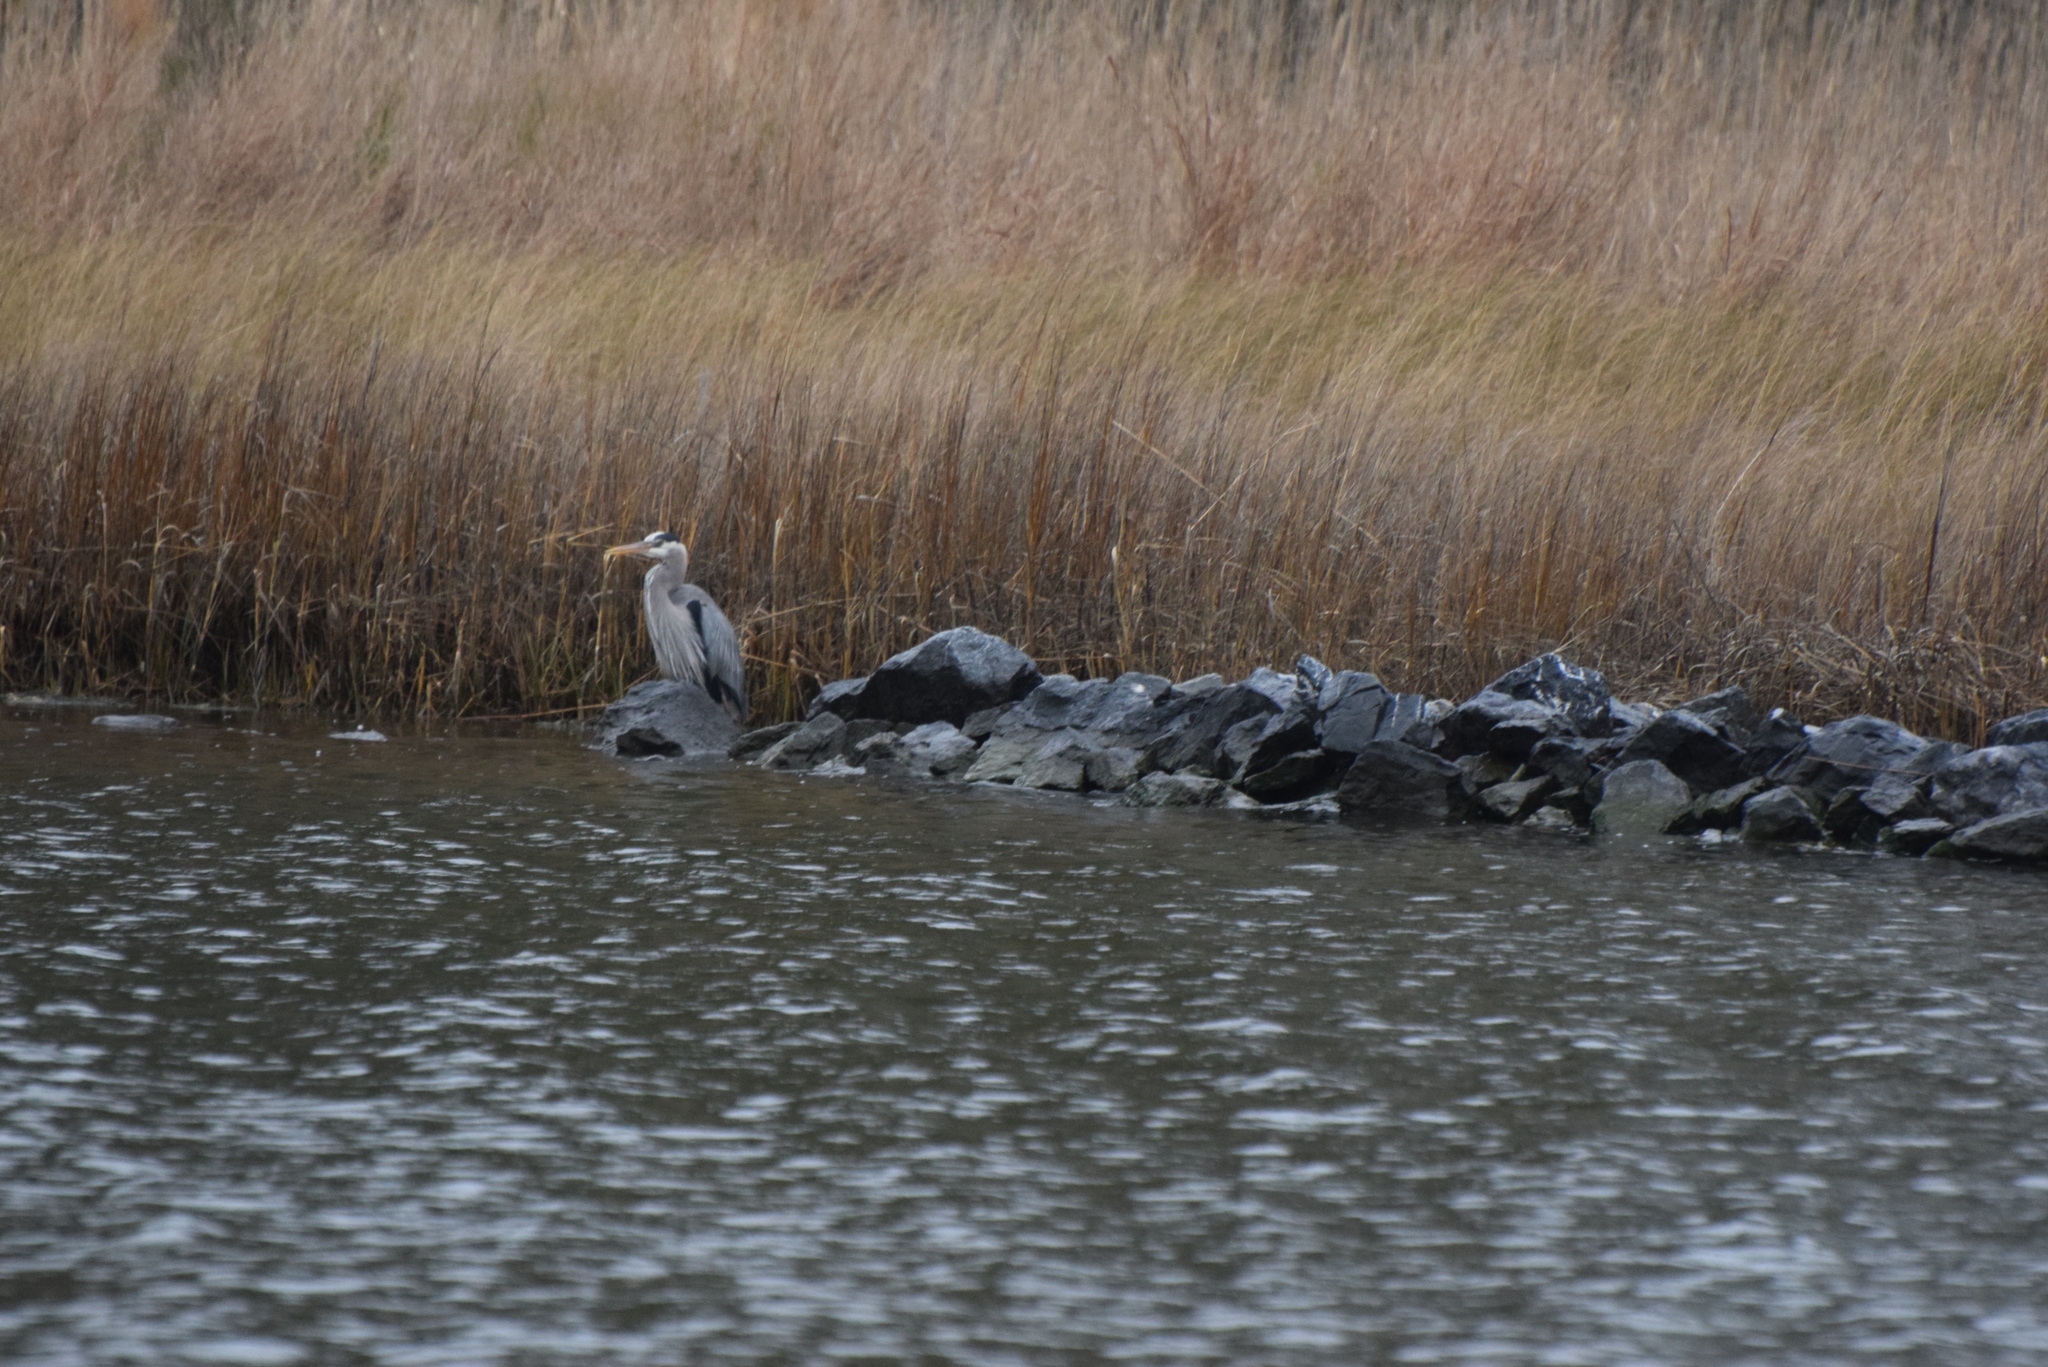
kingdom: Animalia
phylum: Chordata
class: Aves
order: Pelecaniformes
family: Ardeidae
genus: Ardea
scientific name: Ardea herodias
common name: Great blue heron
